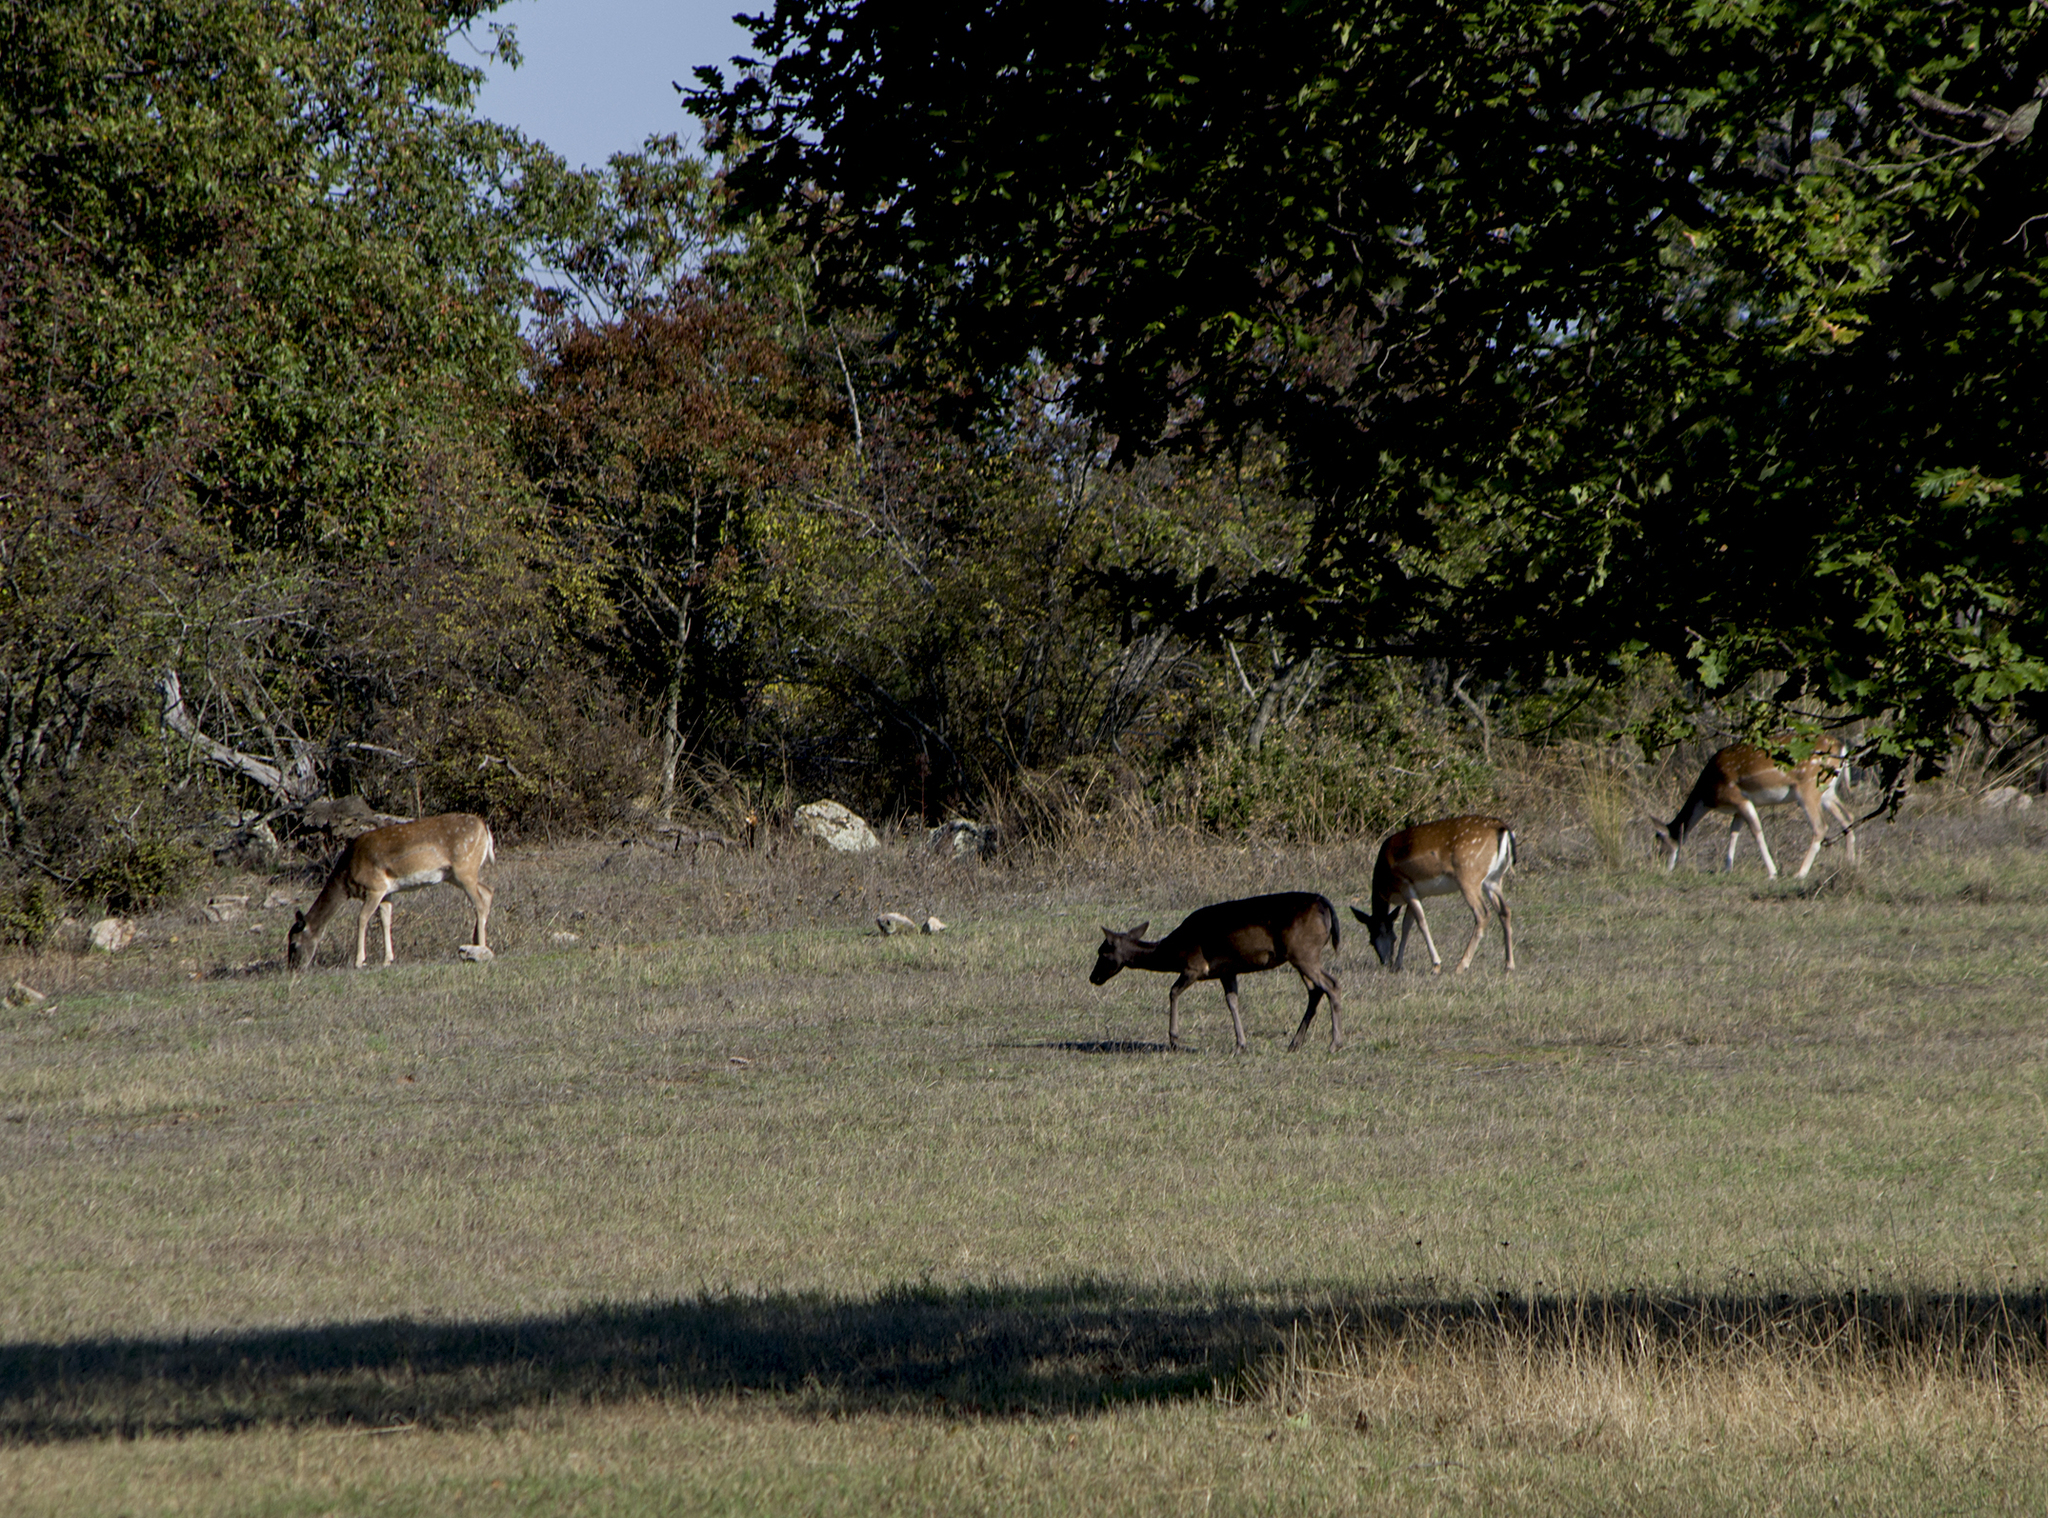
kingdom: Animalia
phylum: Chordata
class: Mammalia
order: Artiodactyla
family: Cervidae
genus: Dama
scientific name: Dama dama
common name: Fallow deer
